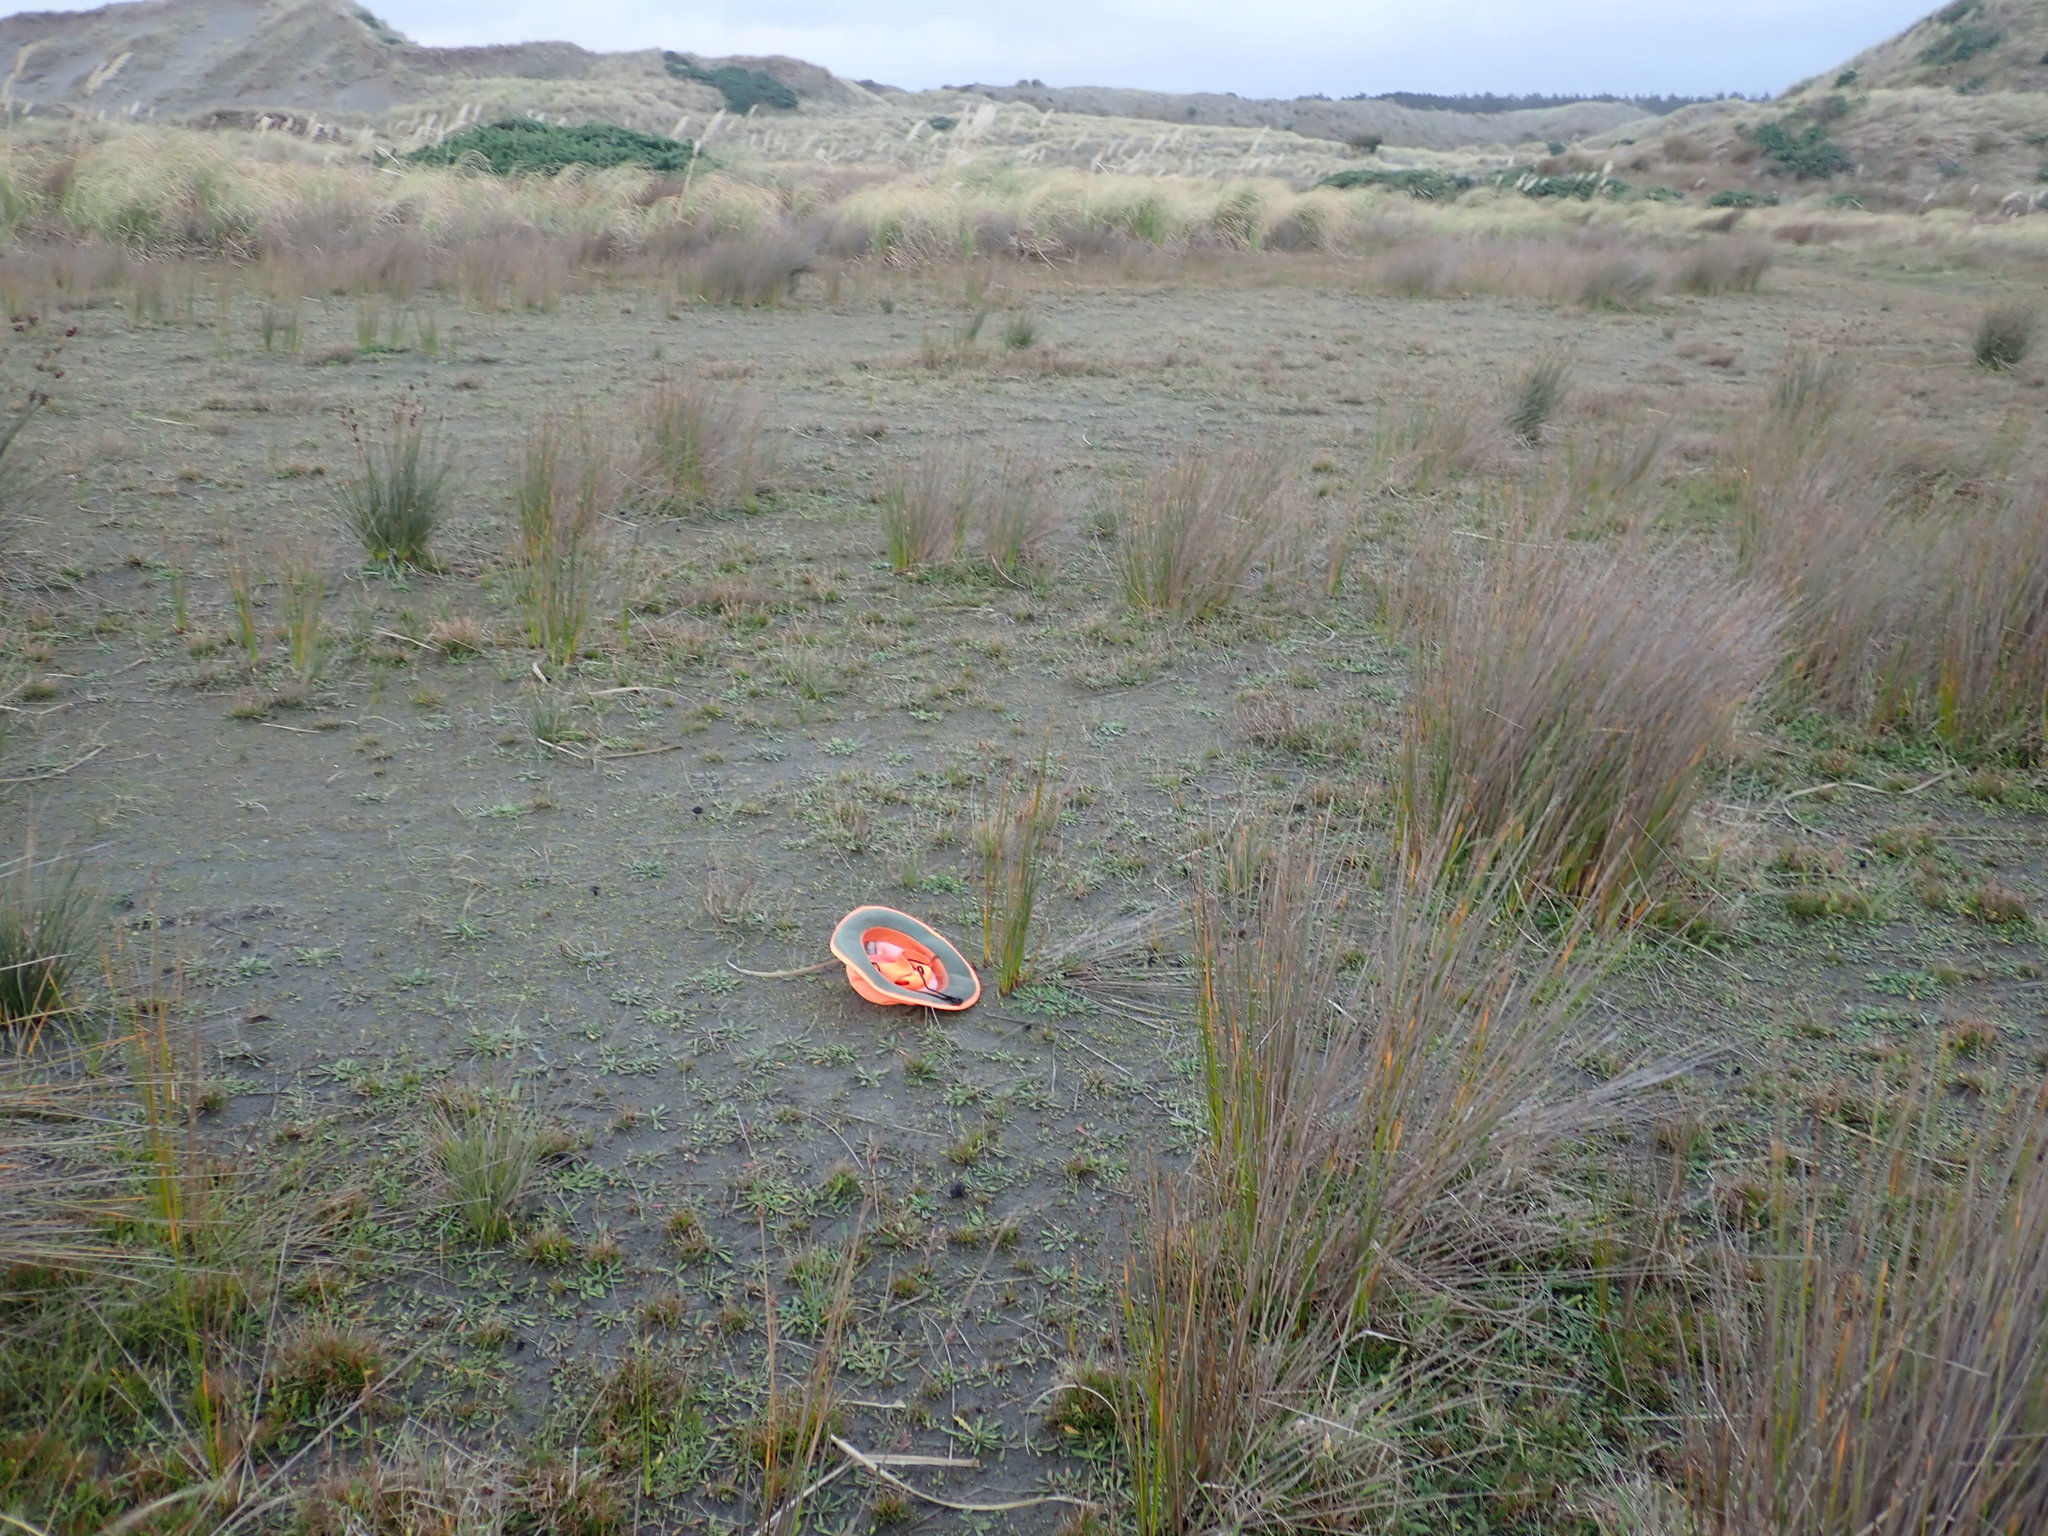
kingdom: Plantae
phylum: Tracheophyta
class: Magnoliopsida
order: Asterales
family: Goodeniaceae
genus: Goodenia
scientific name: Goodenia heenanii
